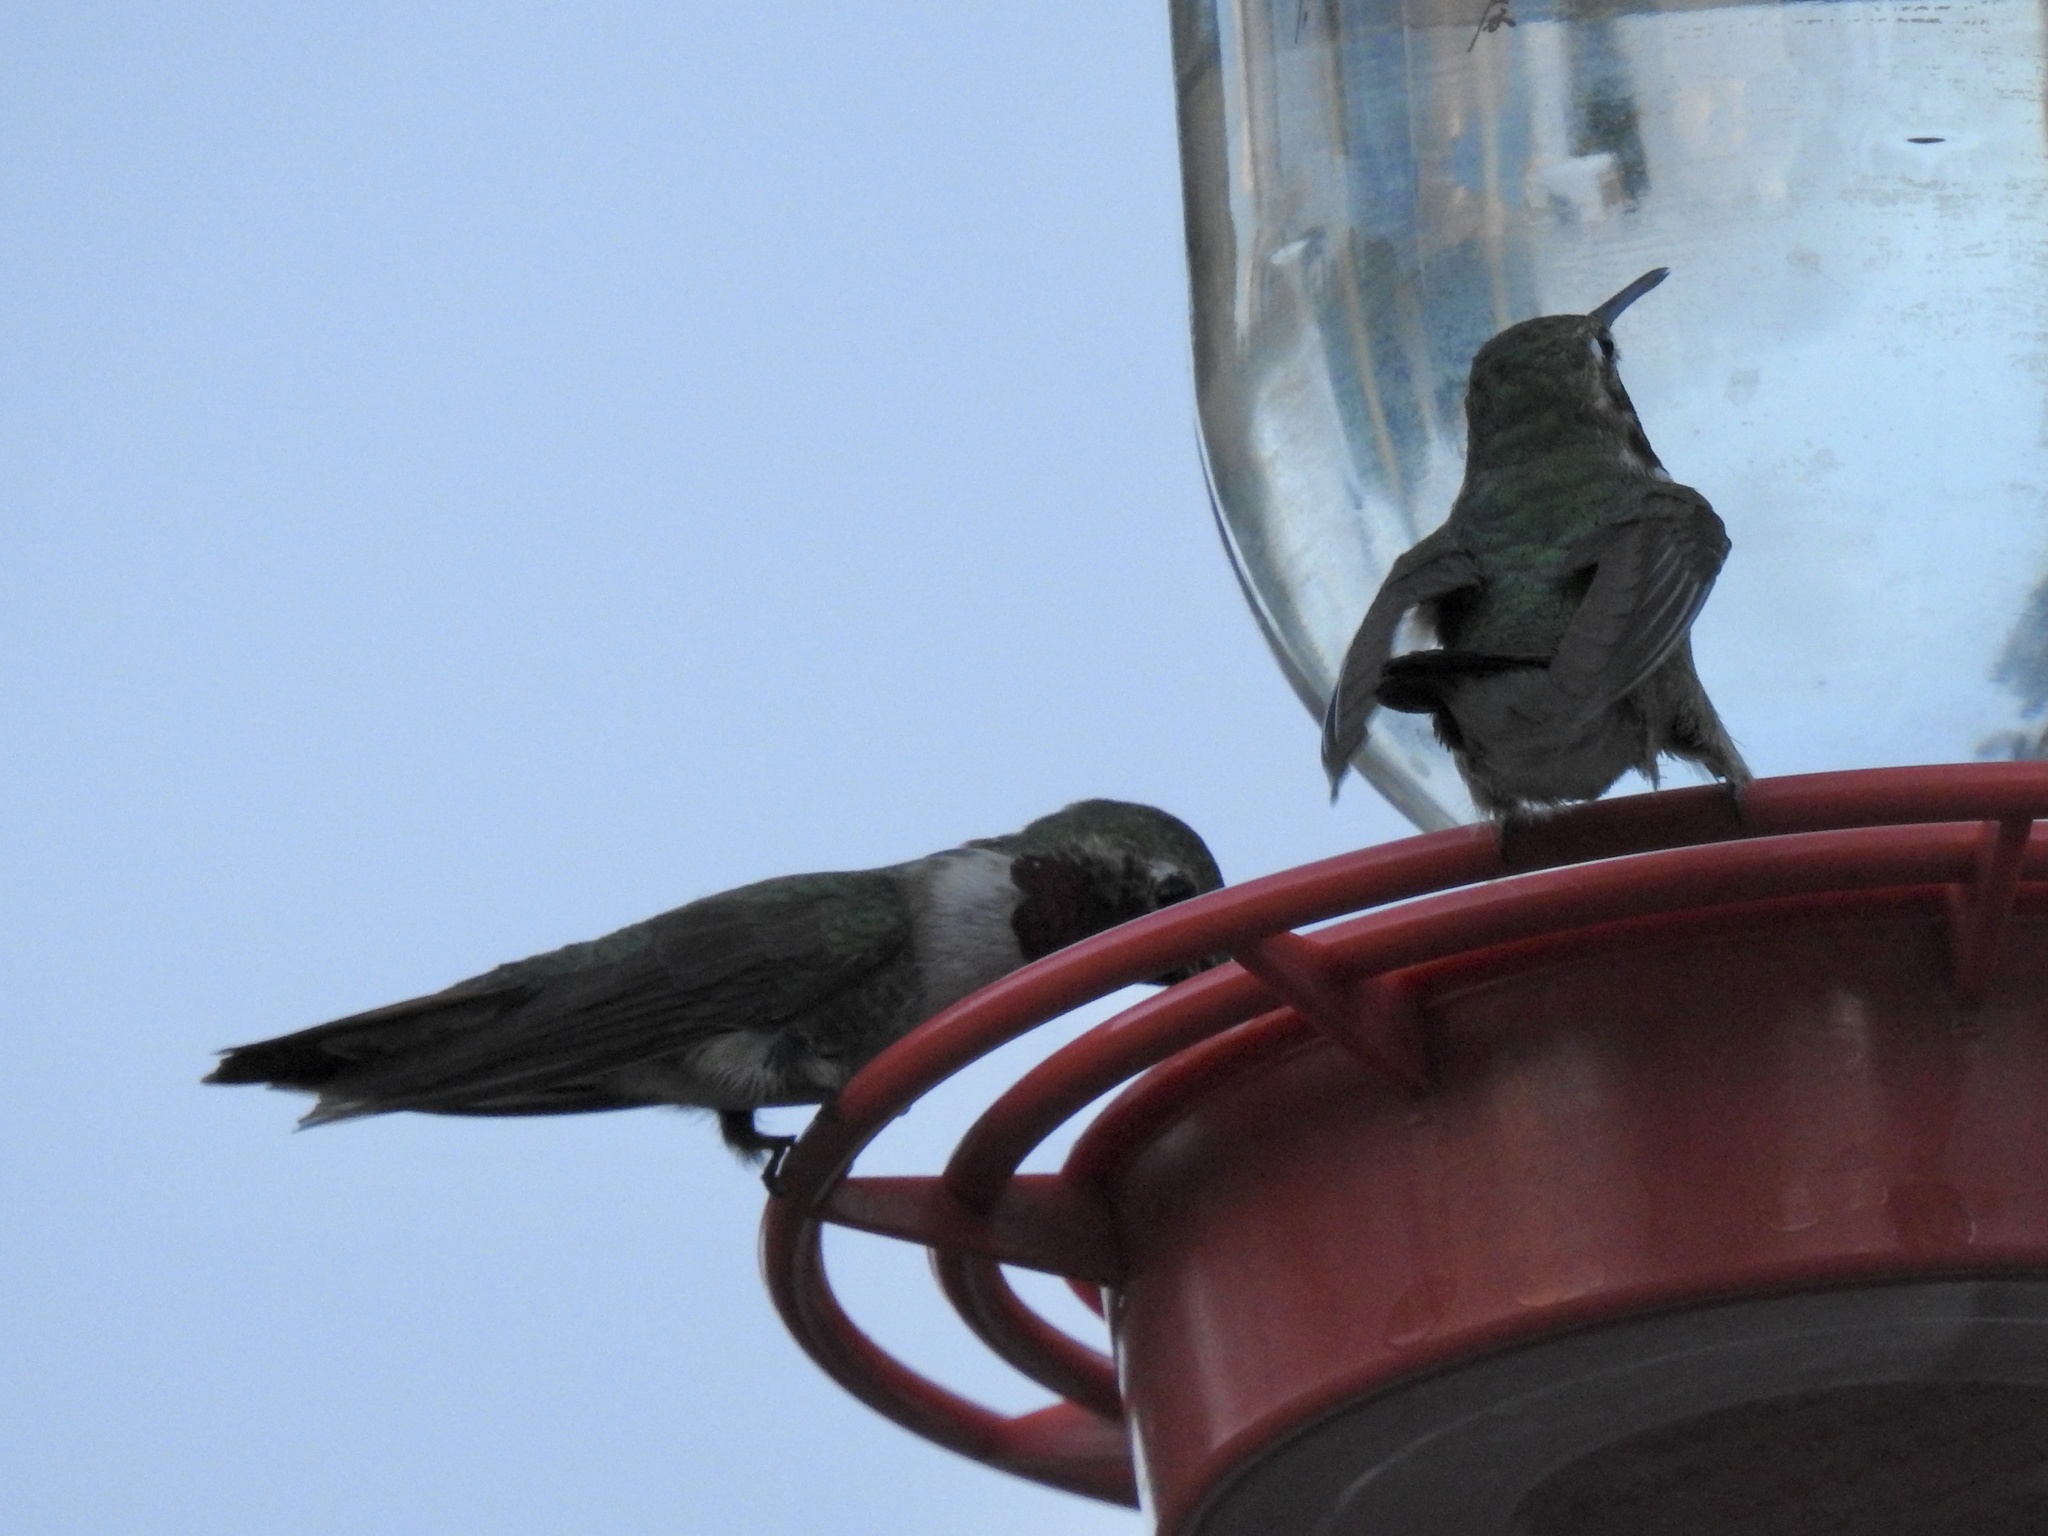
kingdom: Animalia
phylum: Chordata
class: Aves
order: Apodiformes
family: Trochilidae
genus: Selasphorus
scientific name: Selasphorus platycercus
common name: Broad-tailed hummingbird
